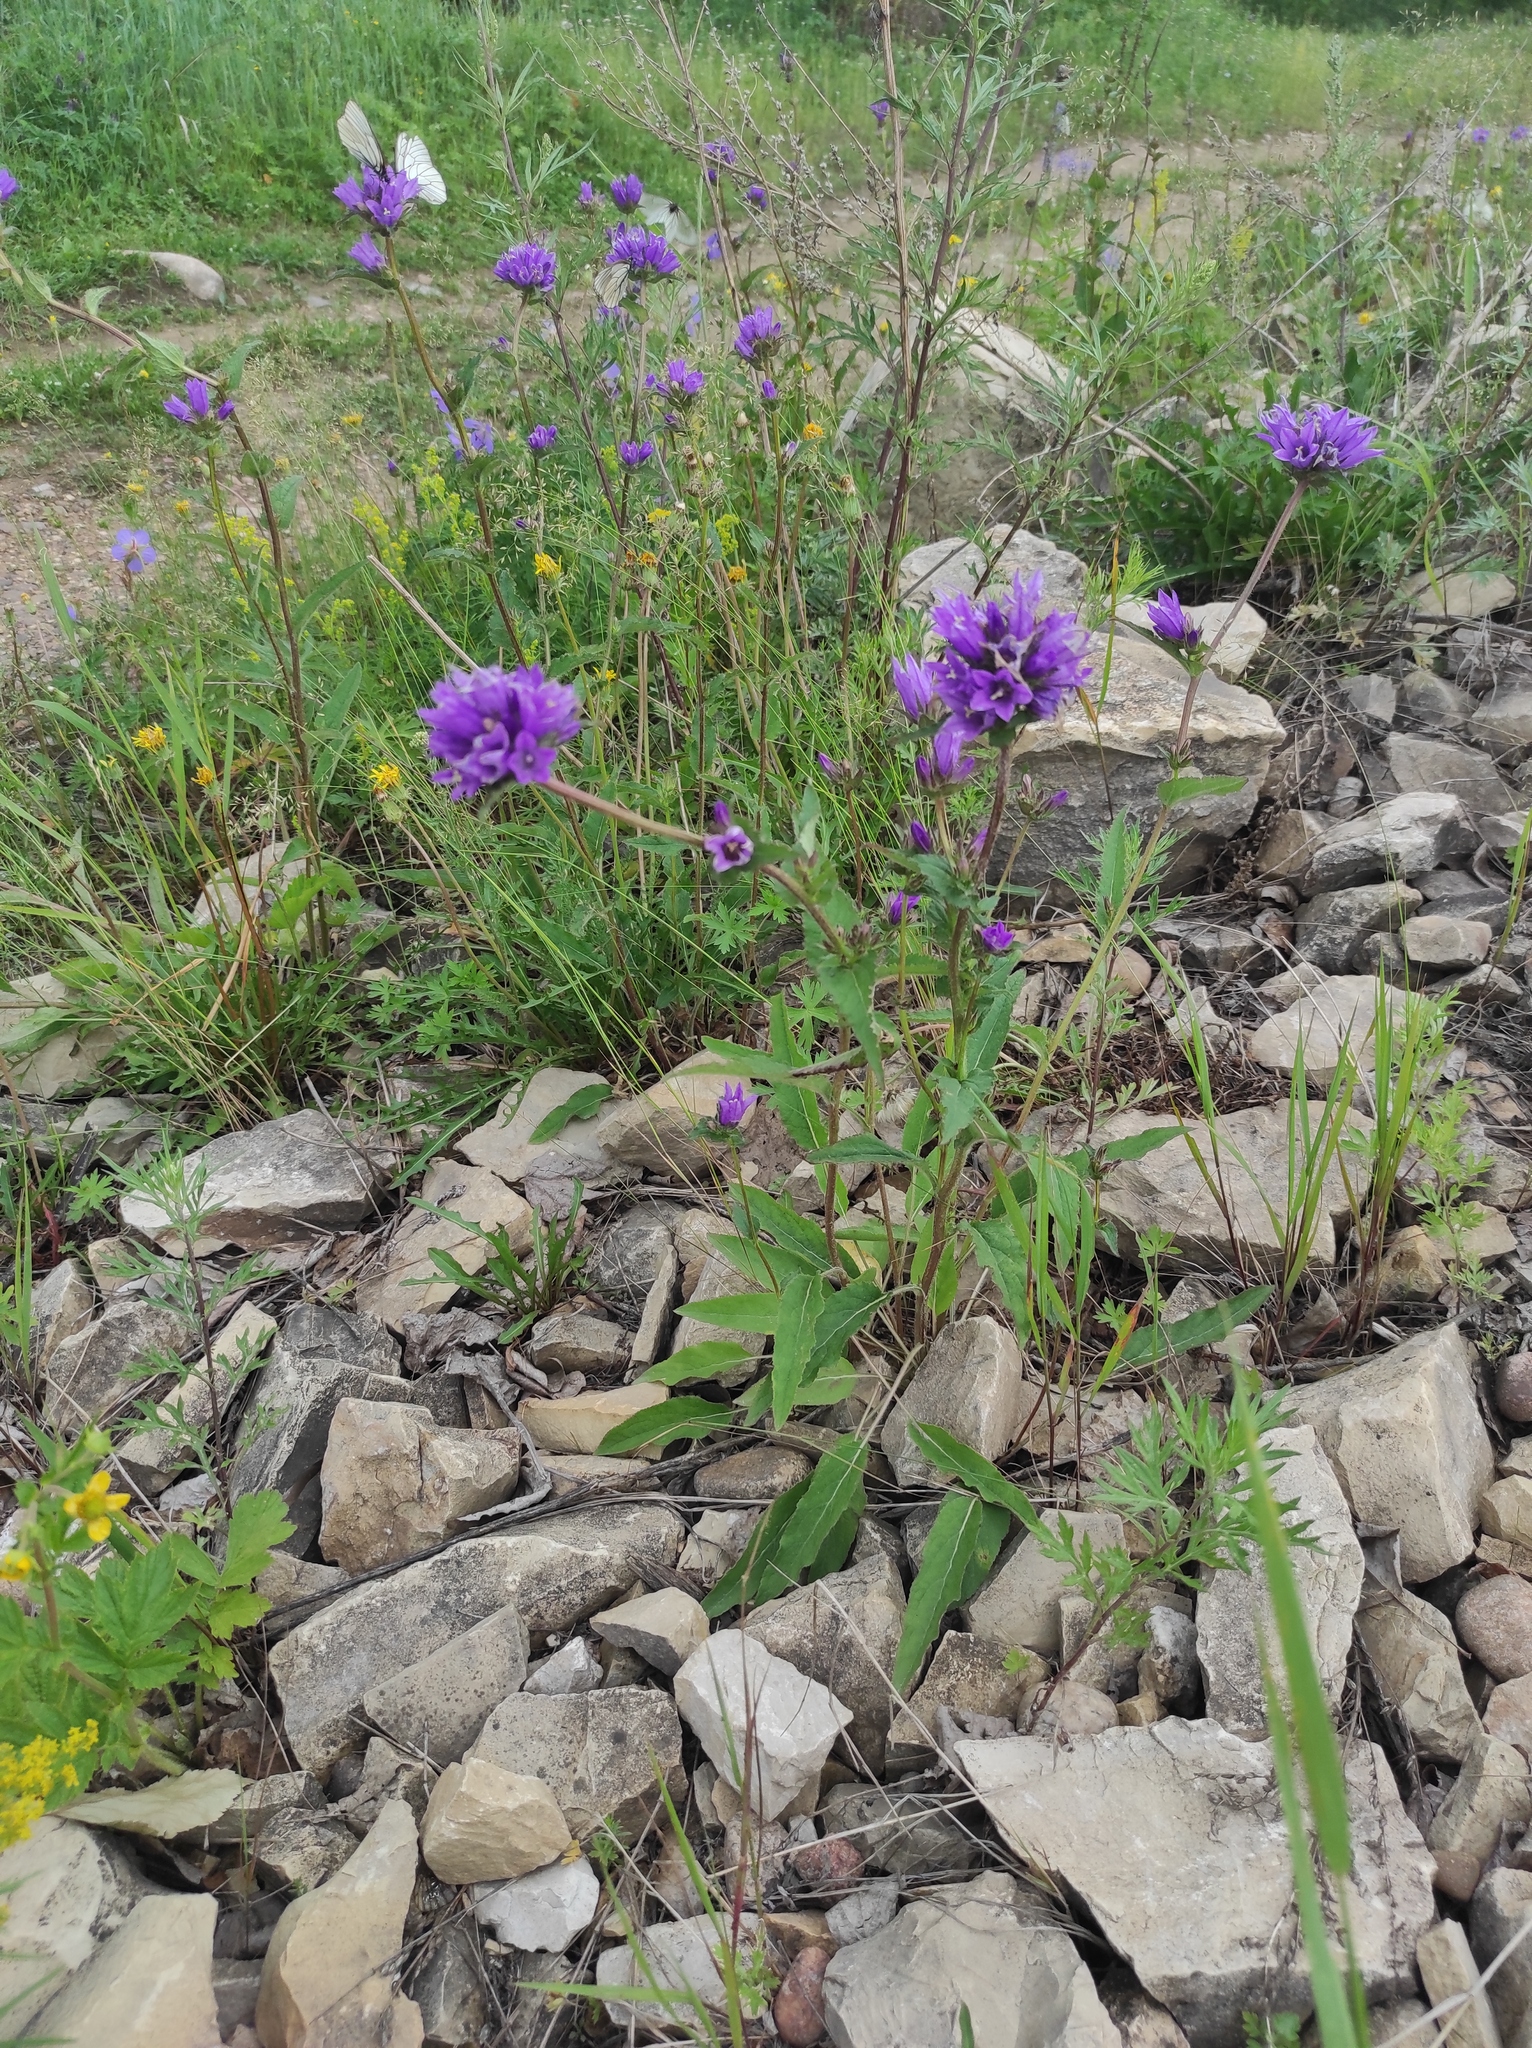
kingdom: Plantae
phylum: Tracheophyta
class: Magnoliopsida
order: Asterales
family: Campanulaceae
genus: Campanula
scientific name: Campanula glomerata
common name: Clustered bellflower
